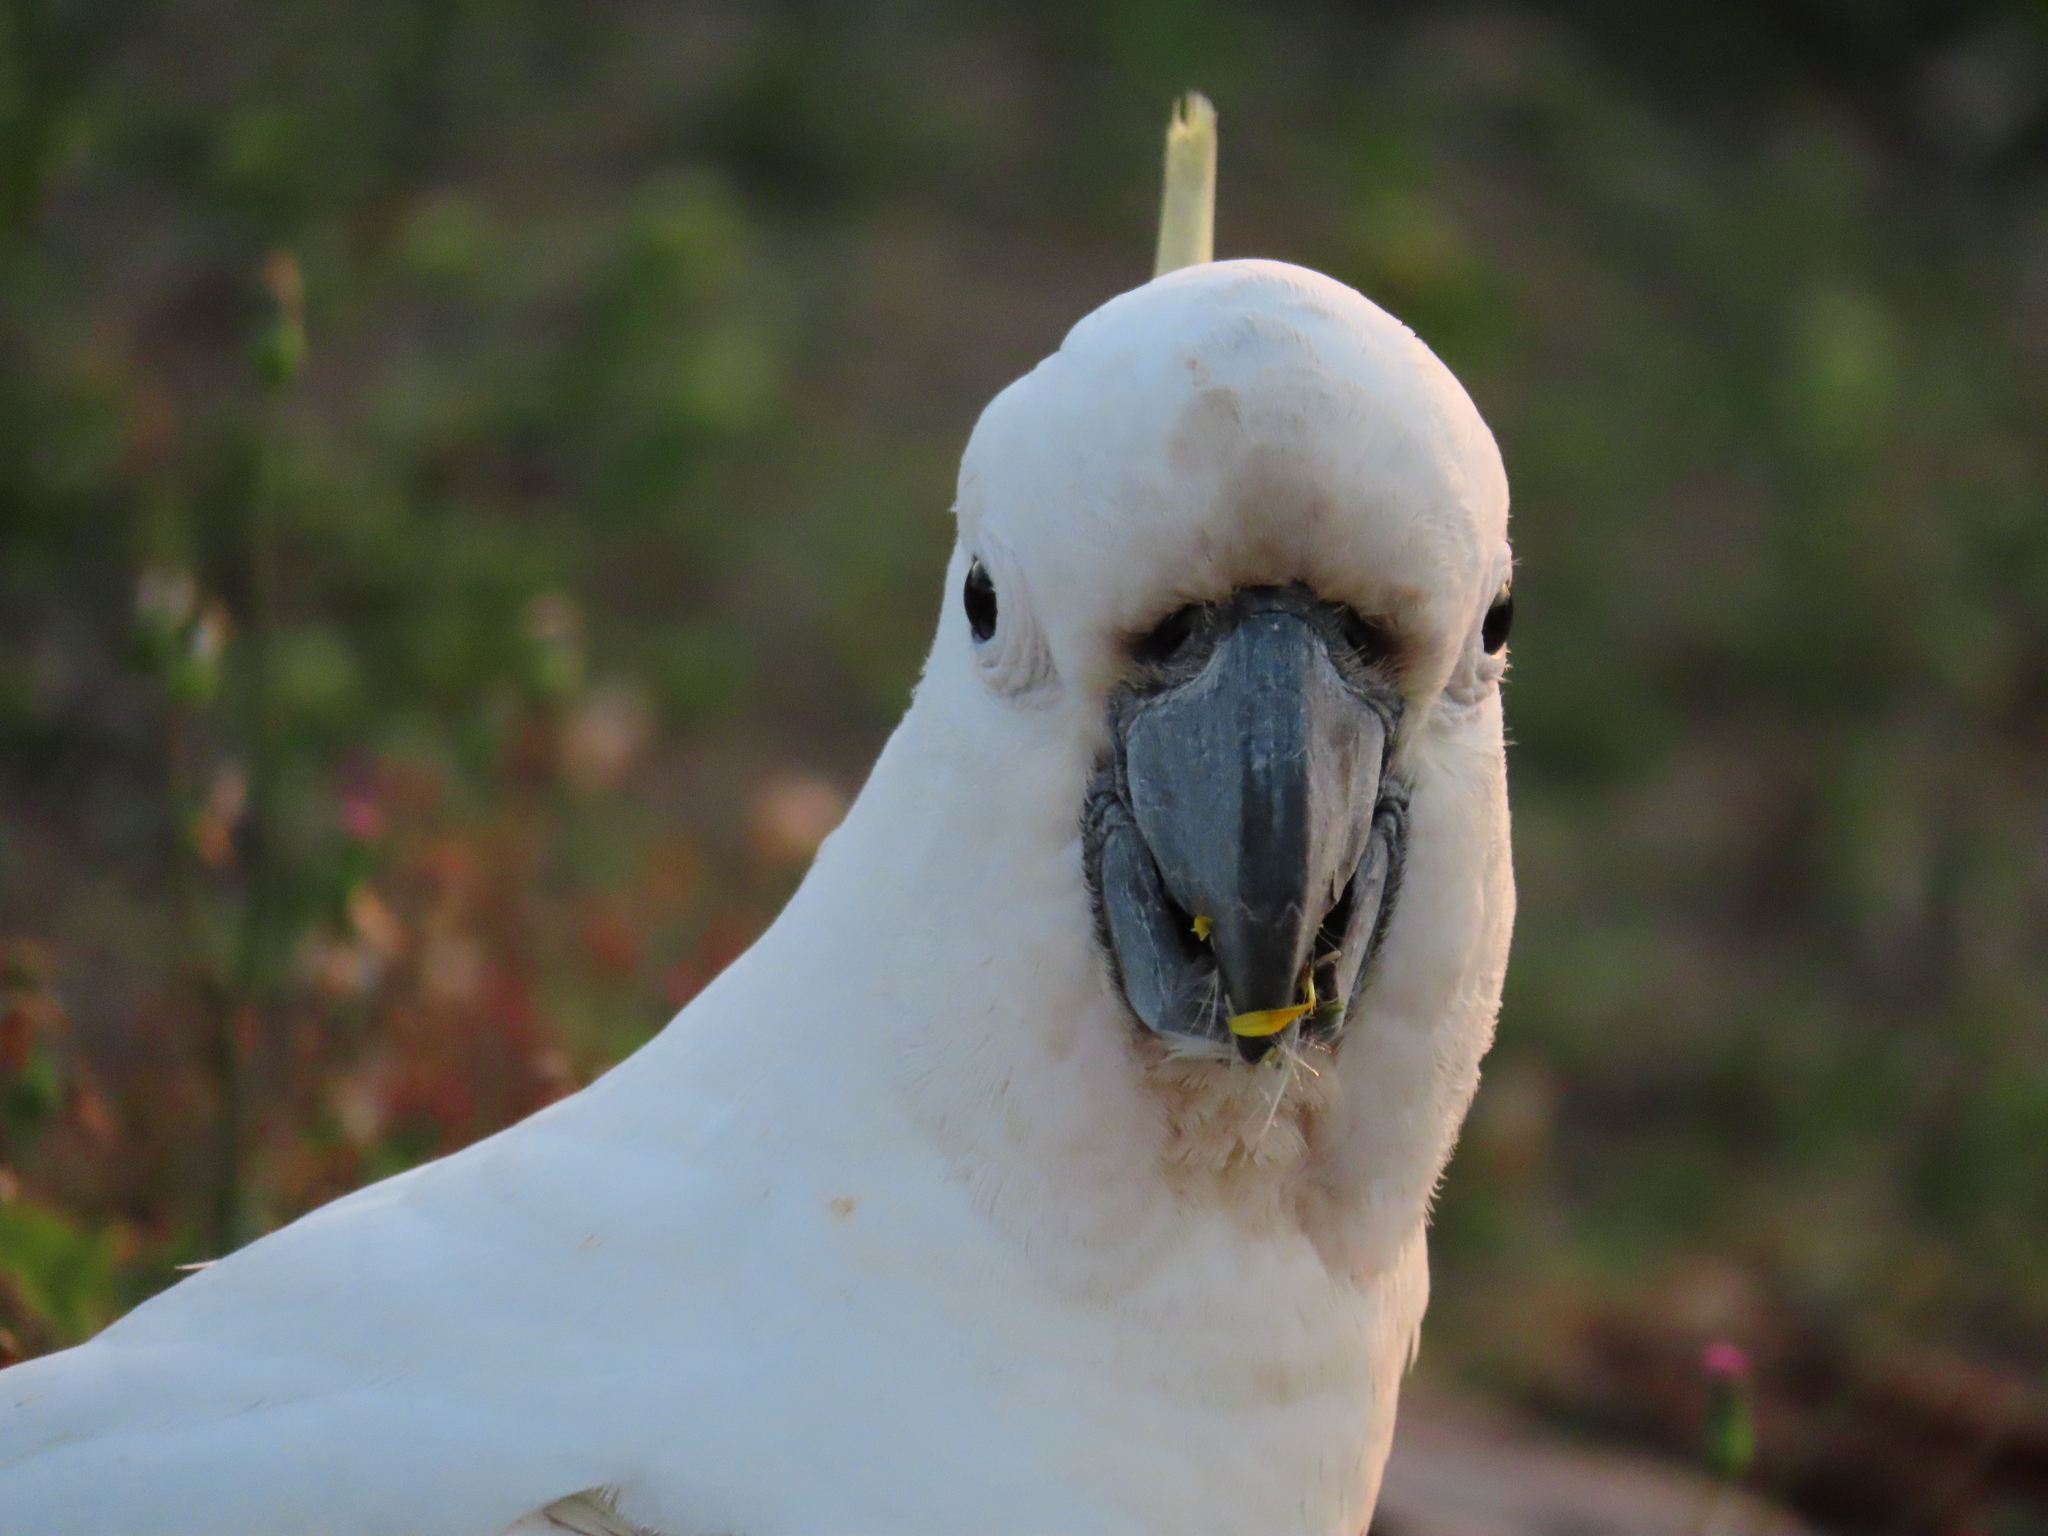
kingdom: Animalia
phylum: Chordata
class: Aves
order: Psittaciformes
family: Psittacidae
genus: Cacatua
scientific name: Cacatua galerita
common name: Sulphur-crested cockatoo
